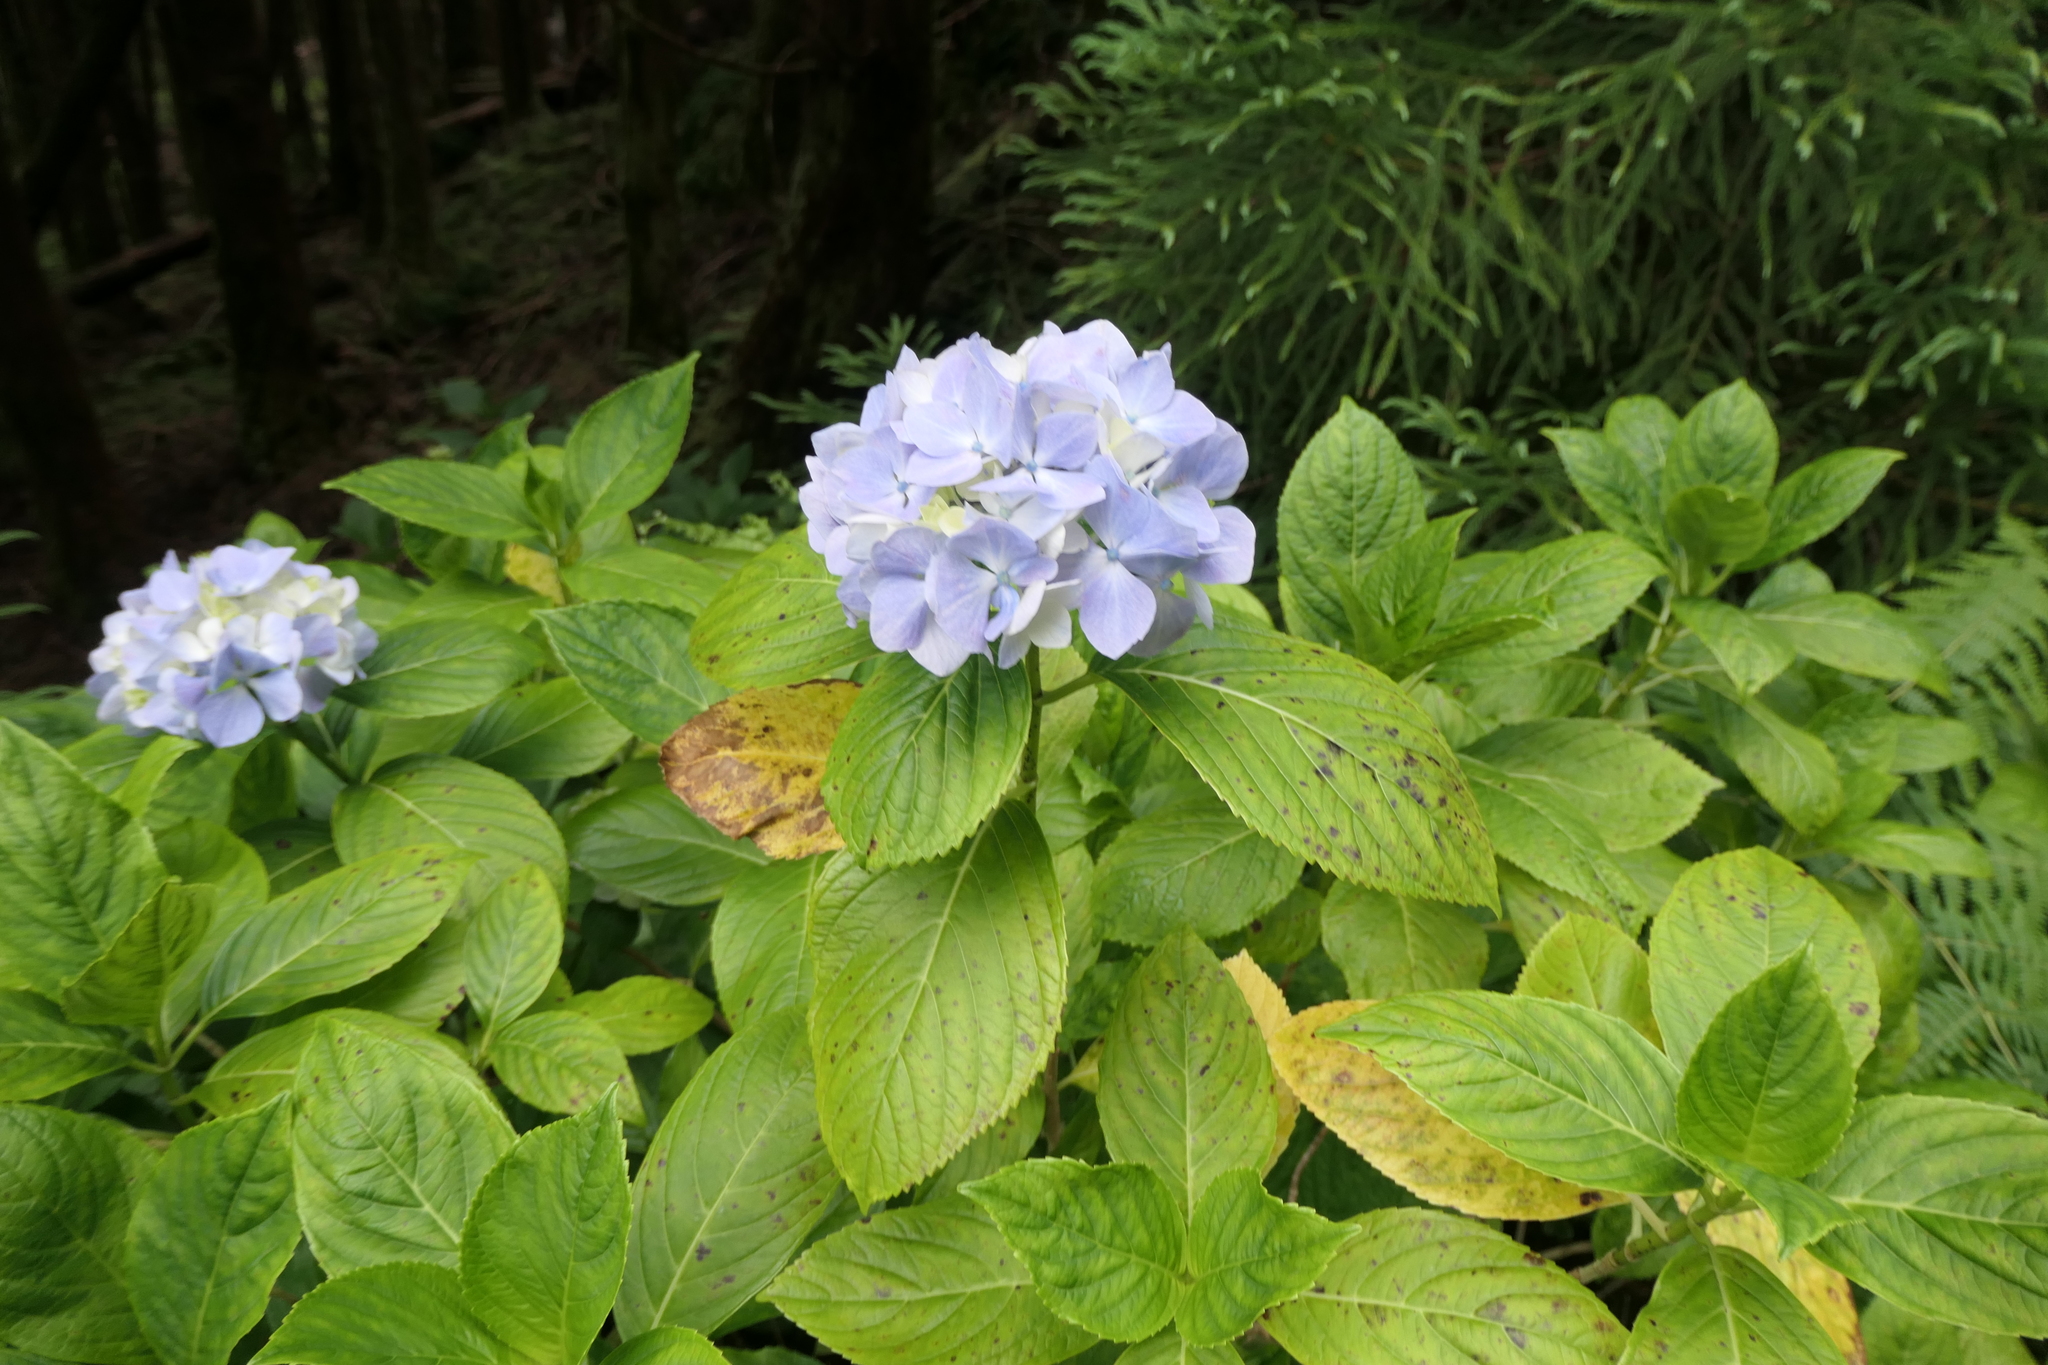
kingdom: Plantae
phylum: Tracheophyta
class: Magnoliopsida
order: Cornales
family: Hydrangeaceae
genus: Hydrangea
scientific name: Hydrangea macrophylla
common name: Hydrangea
